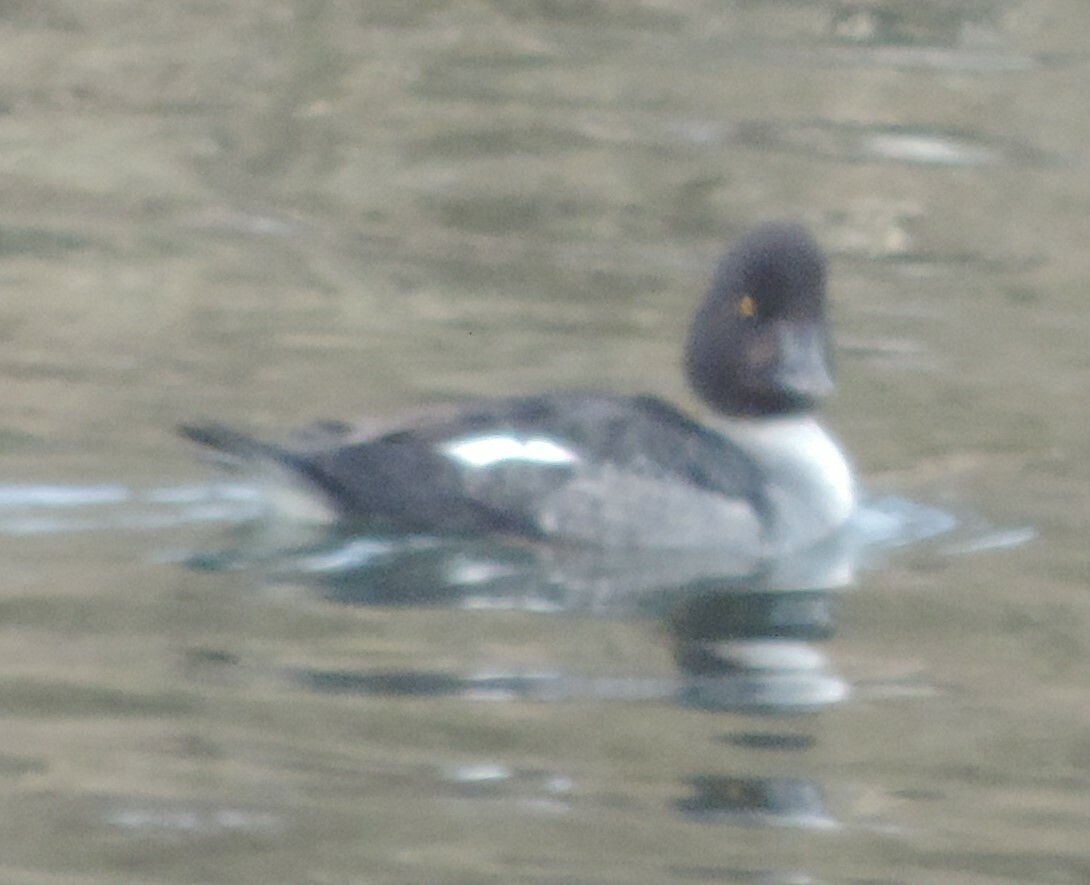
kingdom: Animalia
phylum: Chordata
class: Aves
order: Anseriformes
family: Anatidae
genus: Bucephala
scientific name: Bucephala clangula
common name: Common goldeneye
